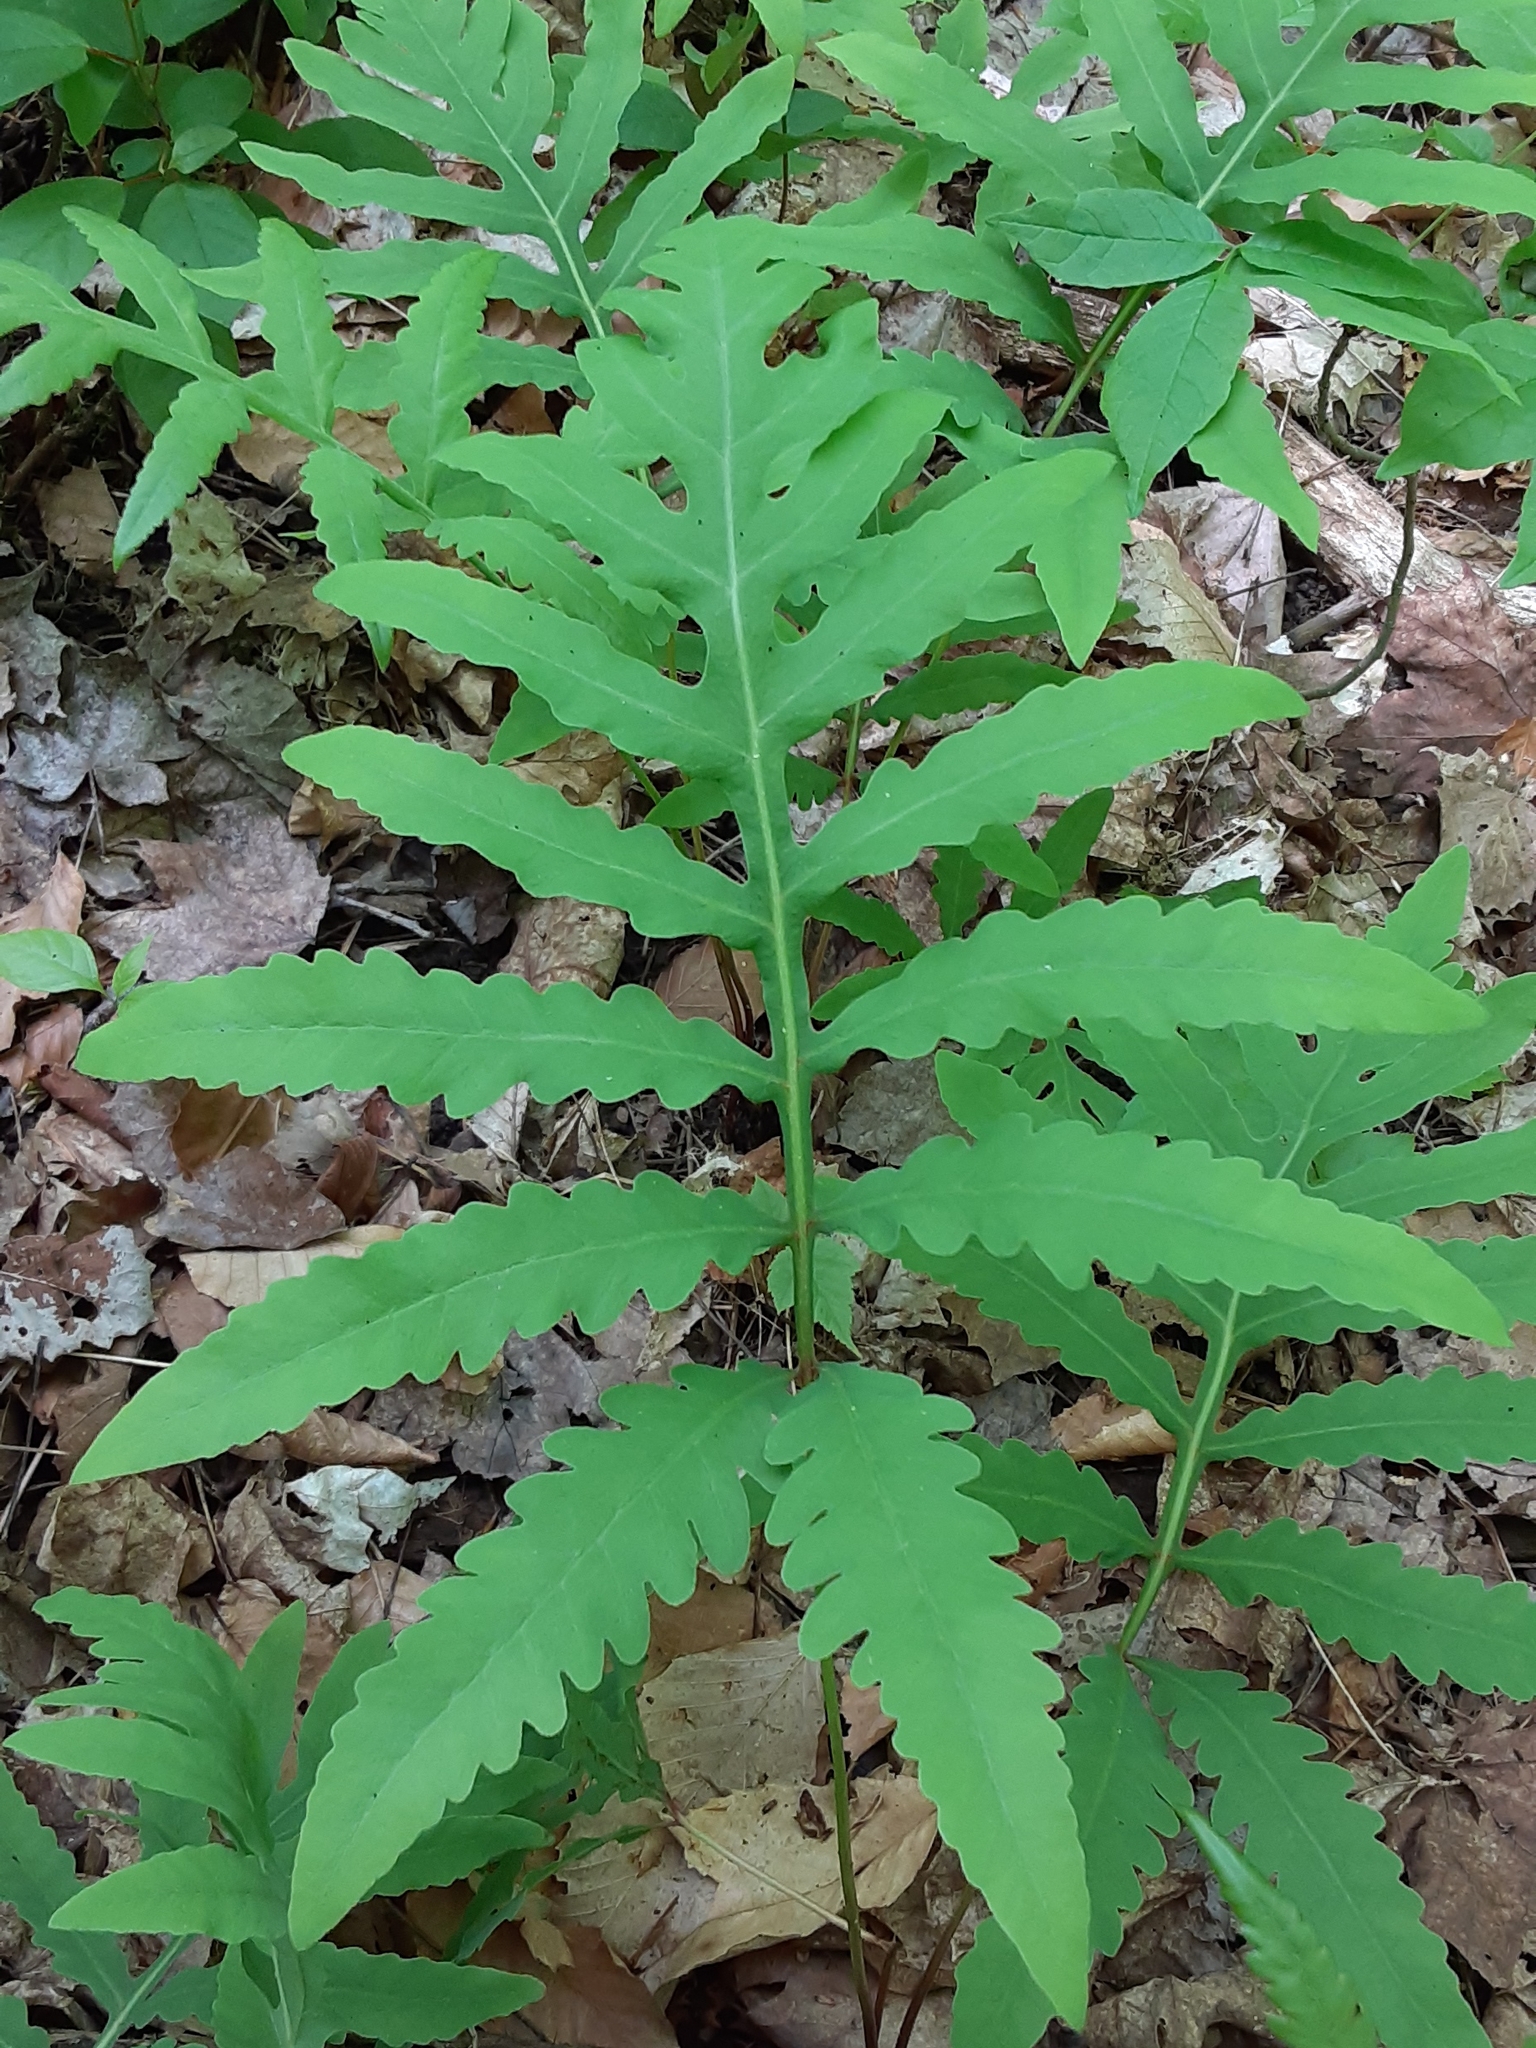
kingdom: Plantae
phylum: Tracheophyta
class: Polypodiopsida
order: Polypodiales
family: Onocleaceae
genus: Onoclea
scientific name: Onoclea sensibilis
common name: Sensitive fern
